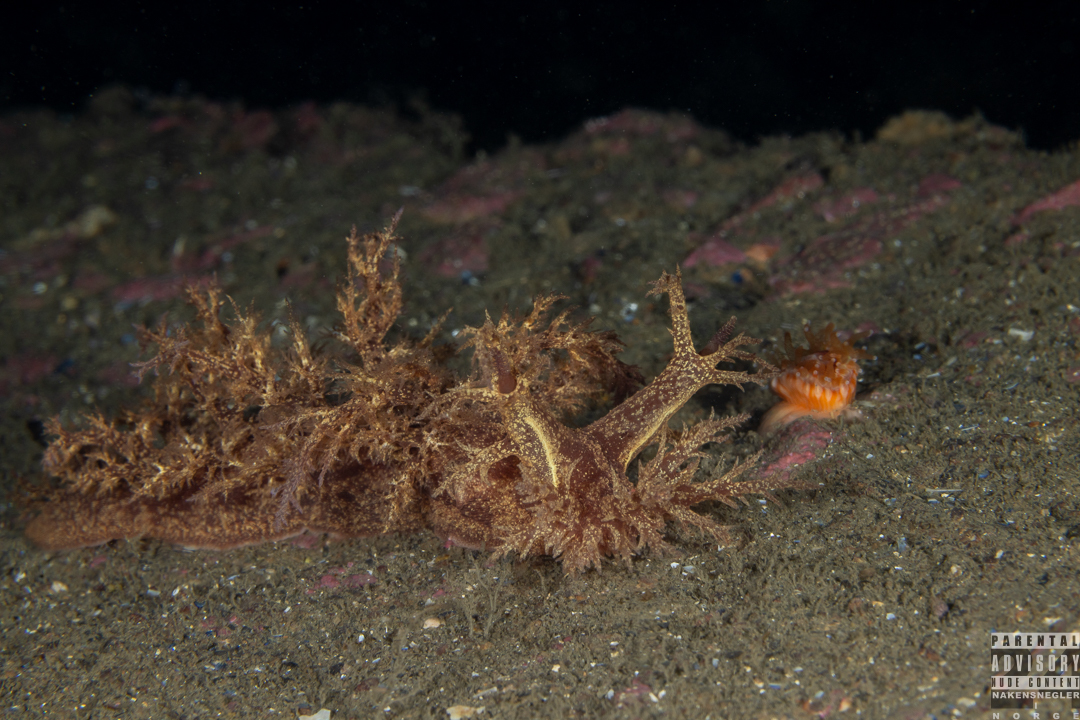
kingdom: Animalia
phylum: Mollusca
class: Gastropoda
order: Nudibranchia
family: Dendronotidae
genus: Dendronotus
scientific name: Dendronotus europaeus
